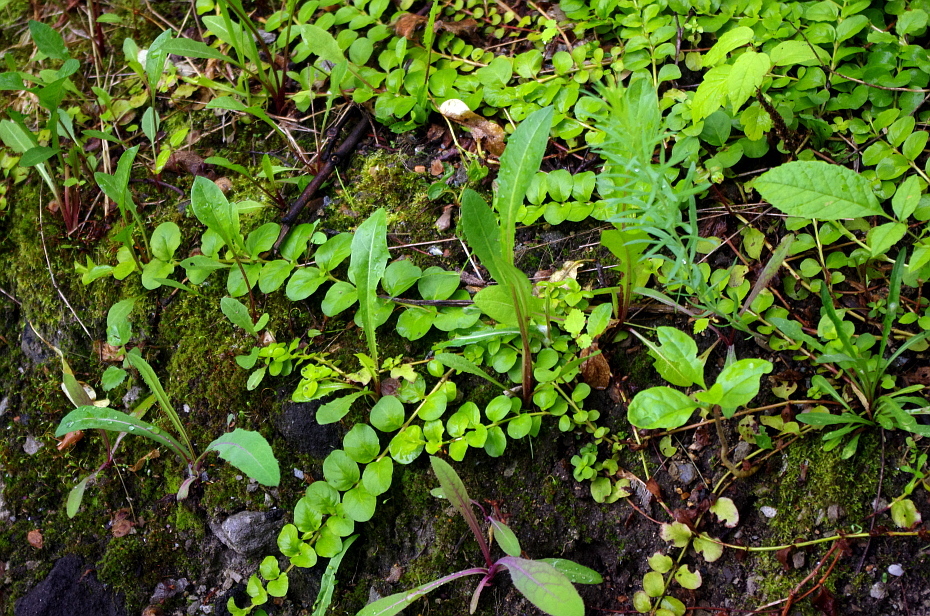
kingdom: Plantae
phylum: Tracheophyta
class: Magnoliopsida
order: Ericales
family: Primulaceae
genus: Lysimachia
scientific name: Lysimachia nummularia
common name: Moneywort
